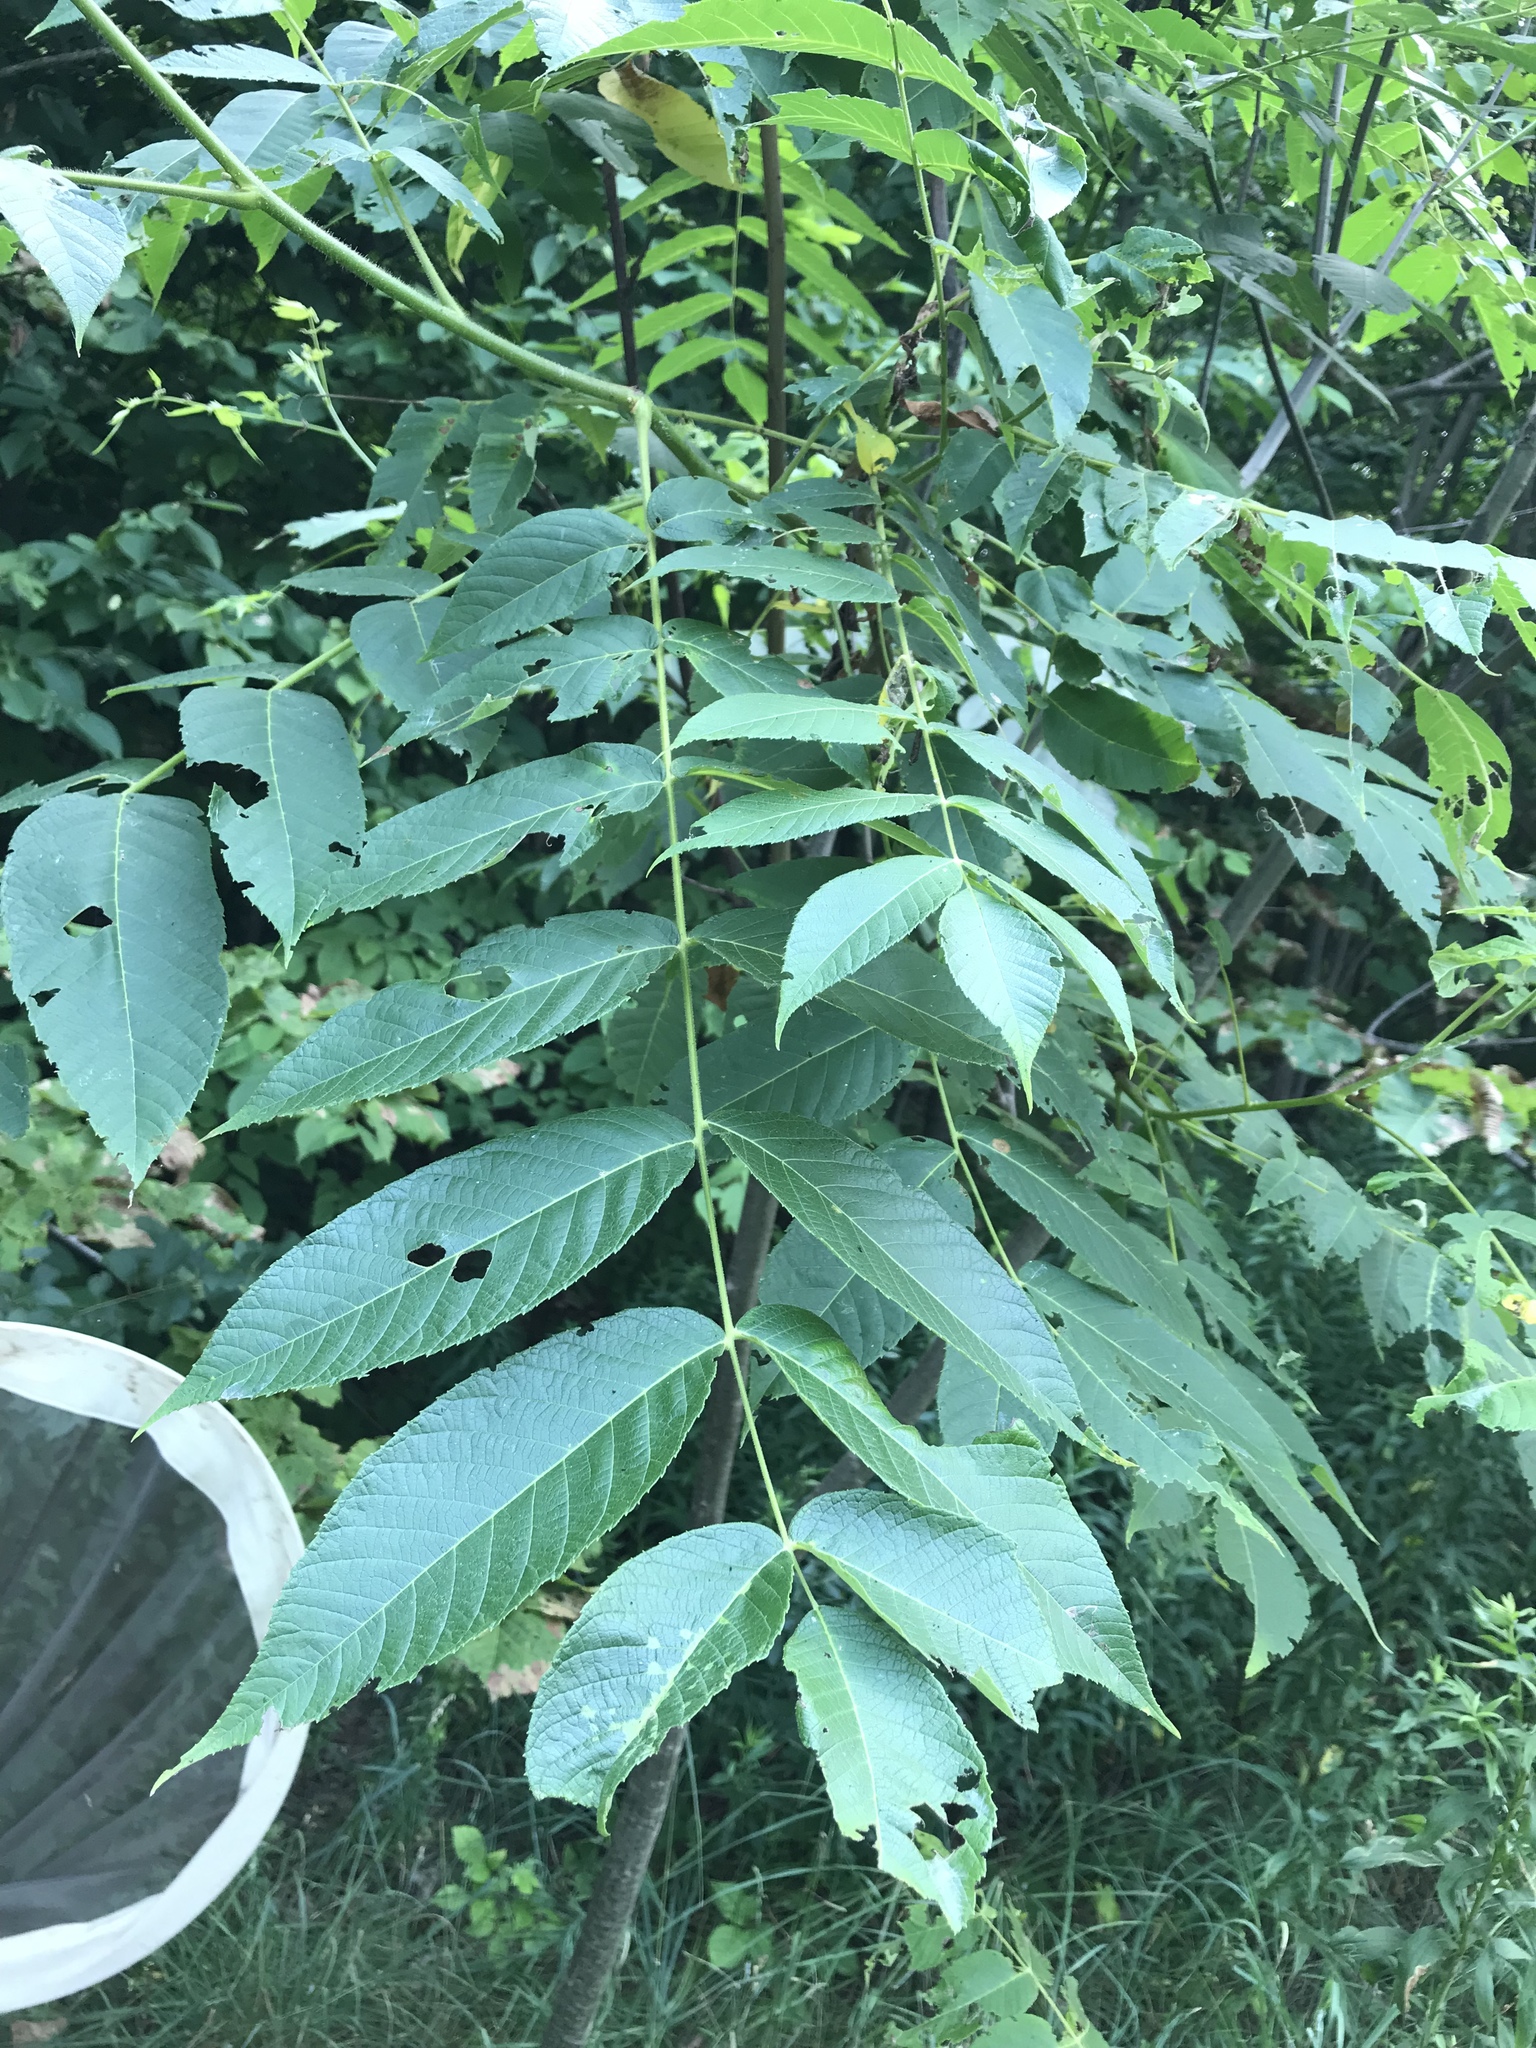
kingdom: Plantae
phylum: Tracheophyta
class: Magnoliopsida
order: Fagales
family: Juglandaceae
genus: Juglans
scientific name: Juglans cinerea
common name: Butternut
